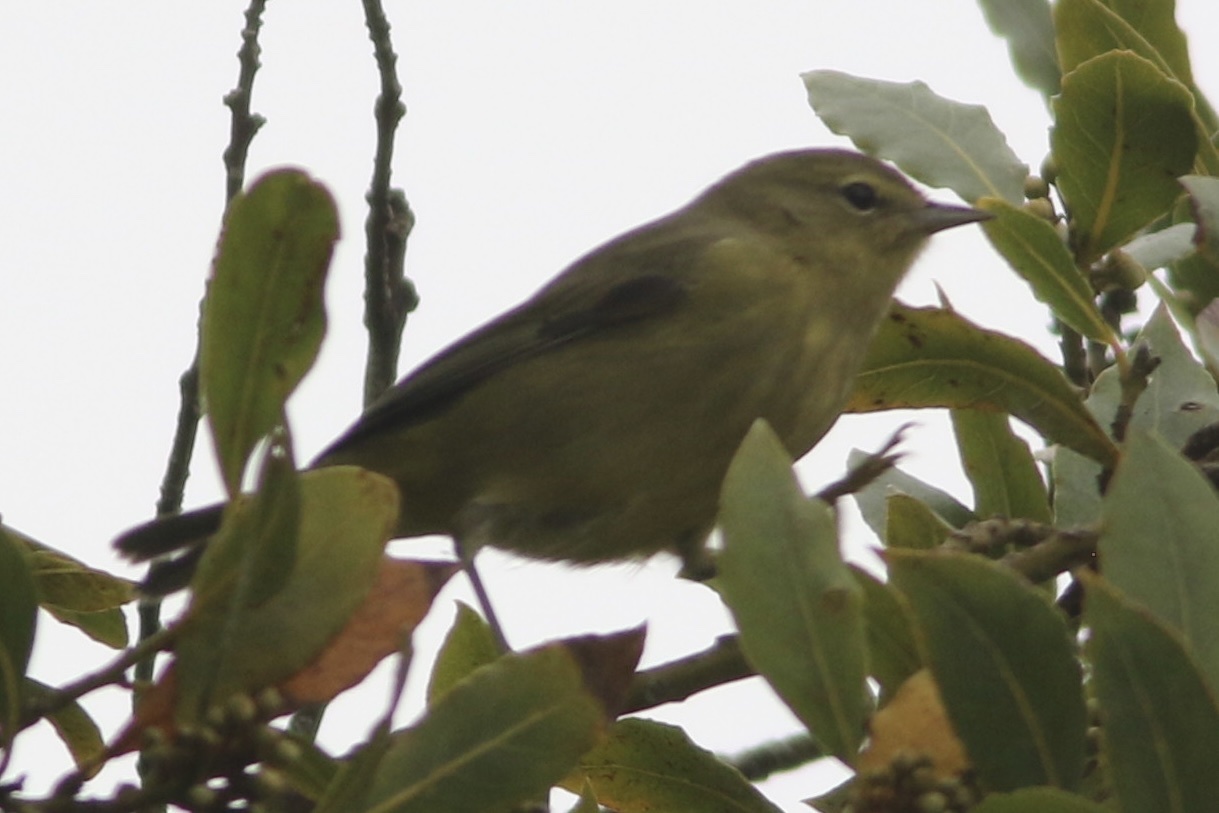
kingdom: Animalia
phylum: Chordata
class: Aves
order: Passeriformes
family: Parulidae
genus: Leiothlypis
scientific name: Leiothlypis celata
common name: Orange-crowned warbler
